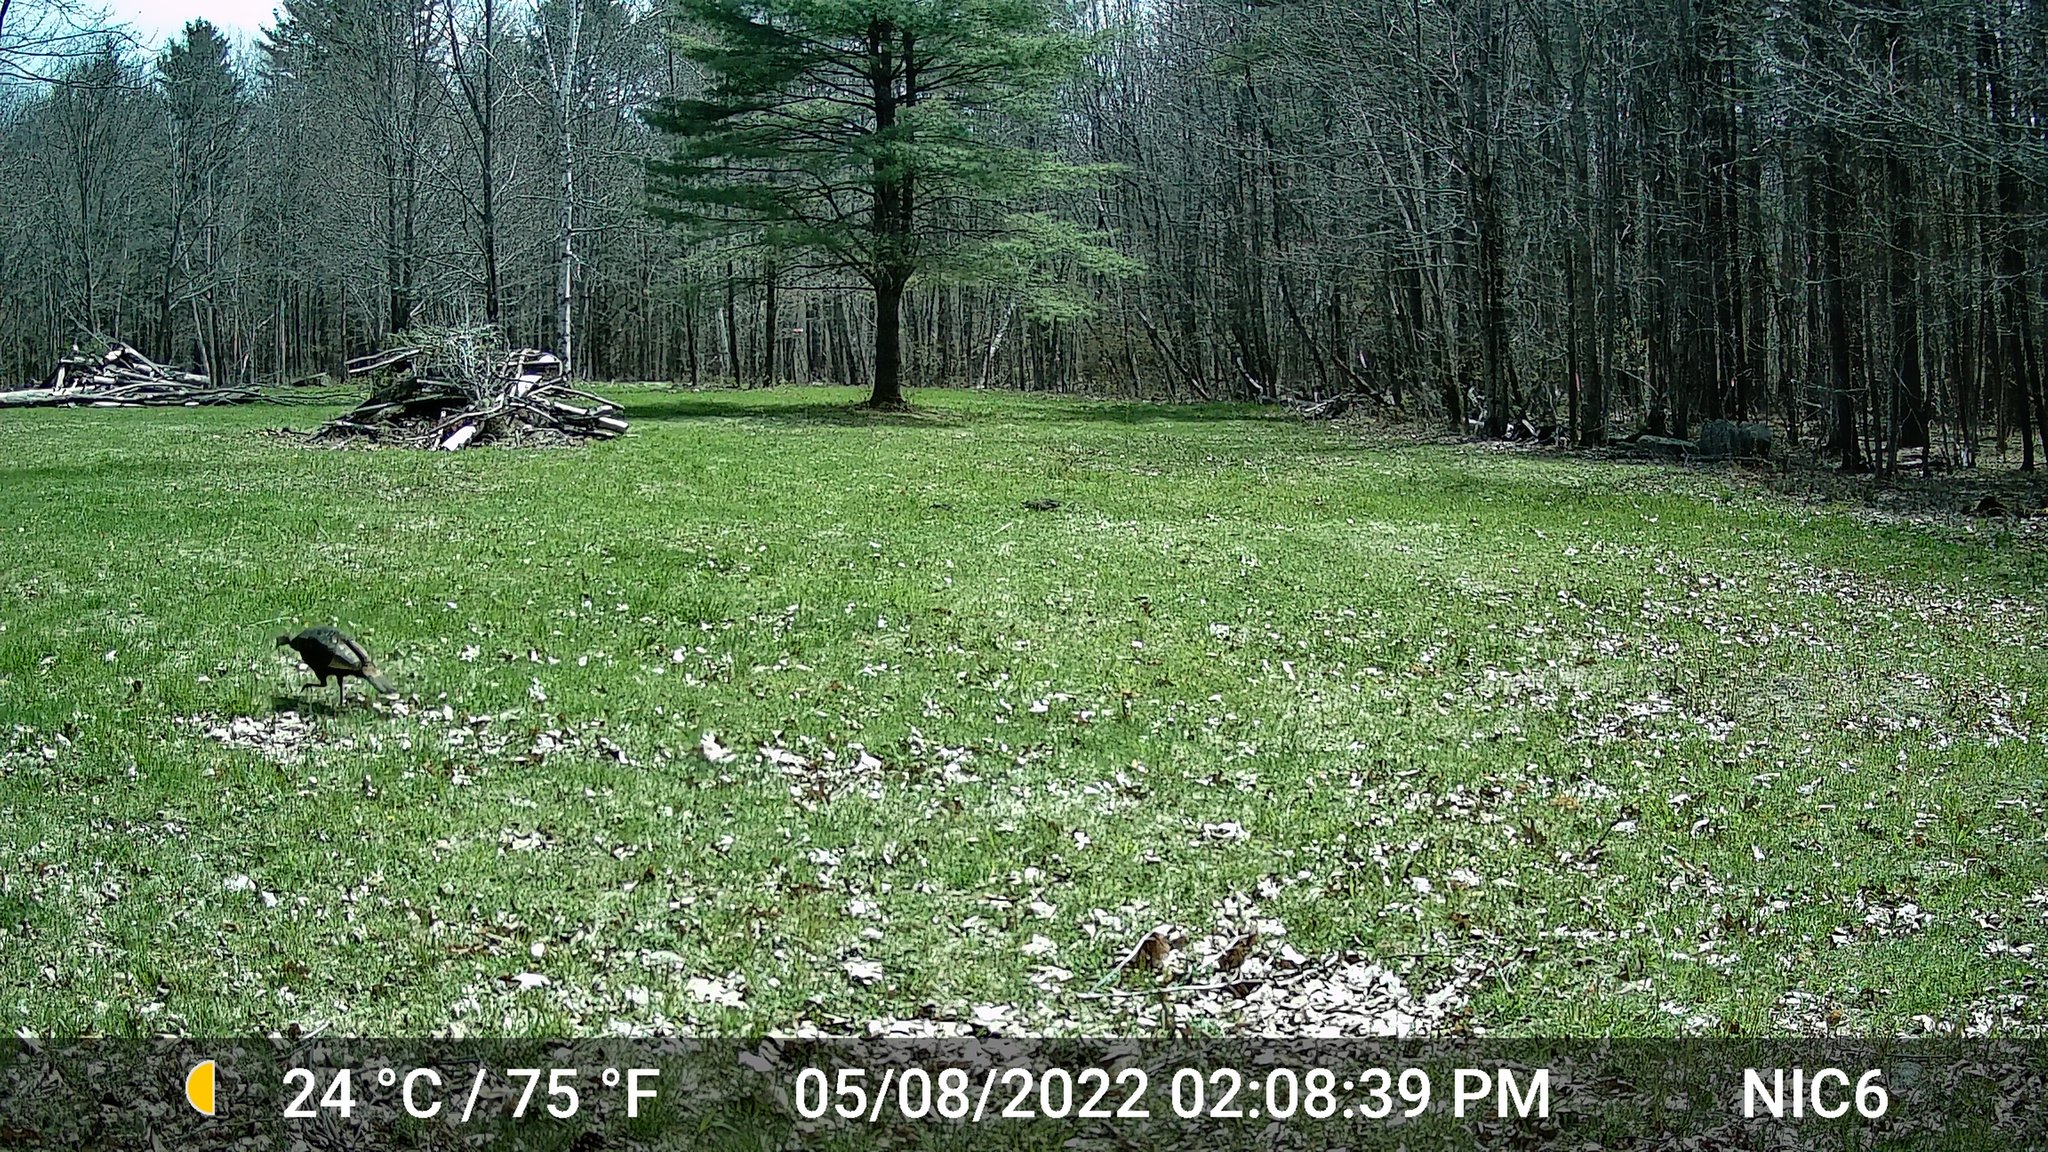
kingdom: Animalia
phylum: Chordata
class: Aves
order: Galliformes
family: Phasianidae
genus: Meleagris
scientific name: Meleagris gallopavo
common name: Wild turkey
